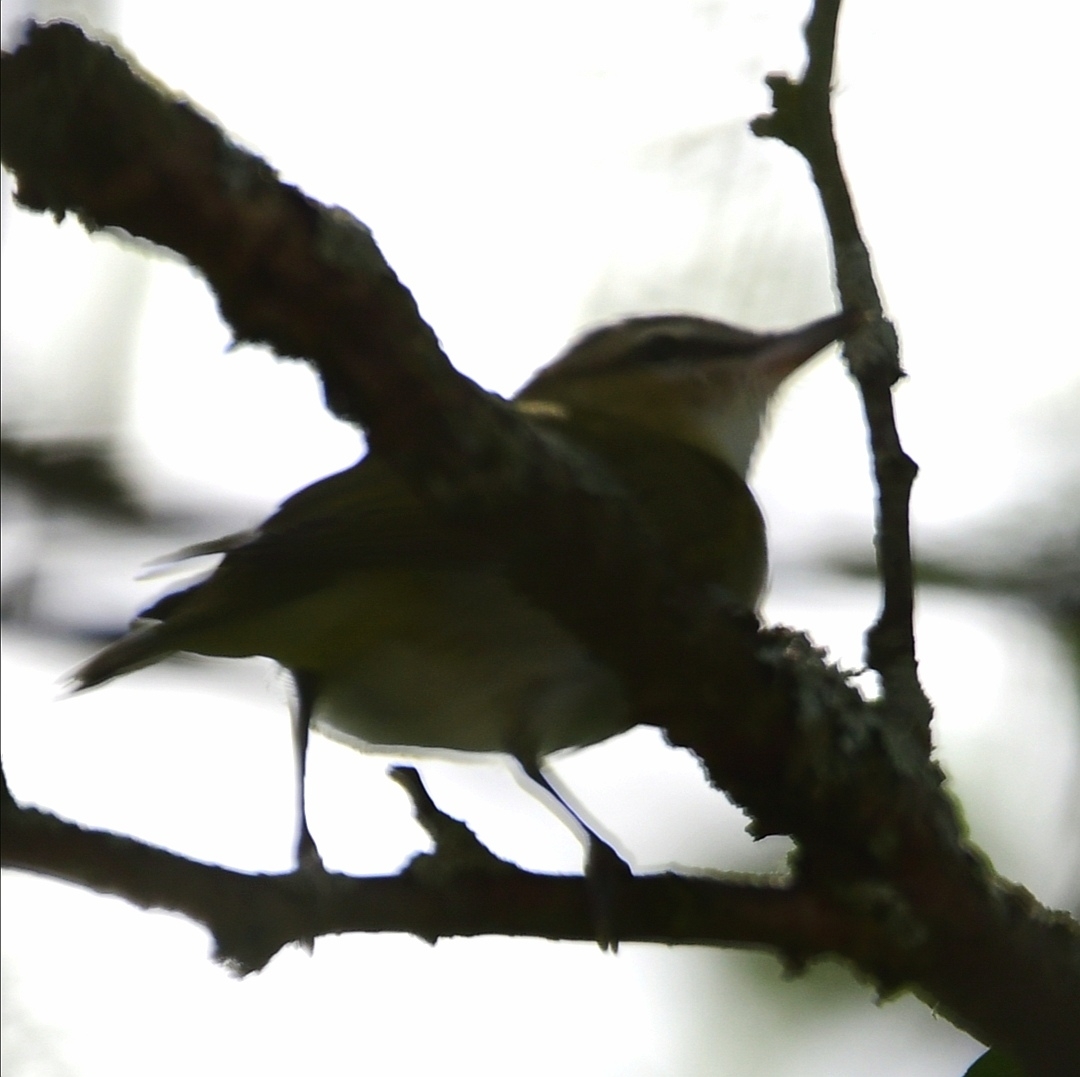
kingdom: Animalia
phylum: Chordata
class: Aves
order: Passeriformes
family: Vireonidae
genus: Vireo
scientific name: Vireo olivaceus
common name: Red-eyed vireo
